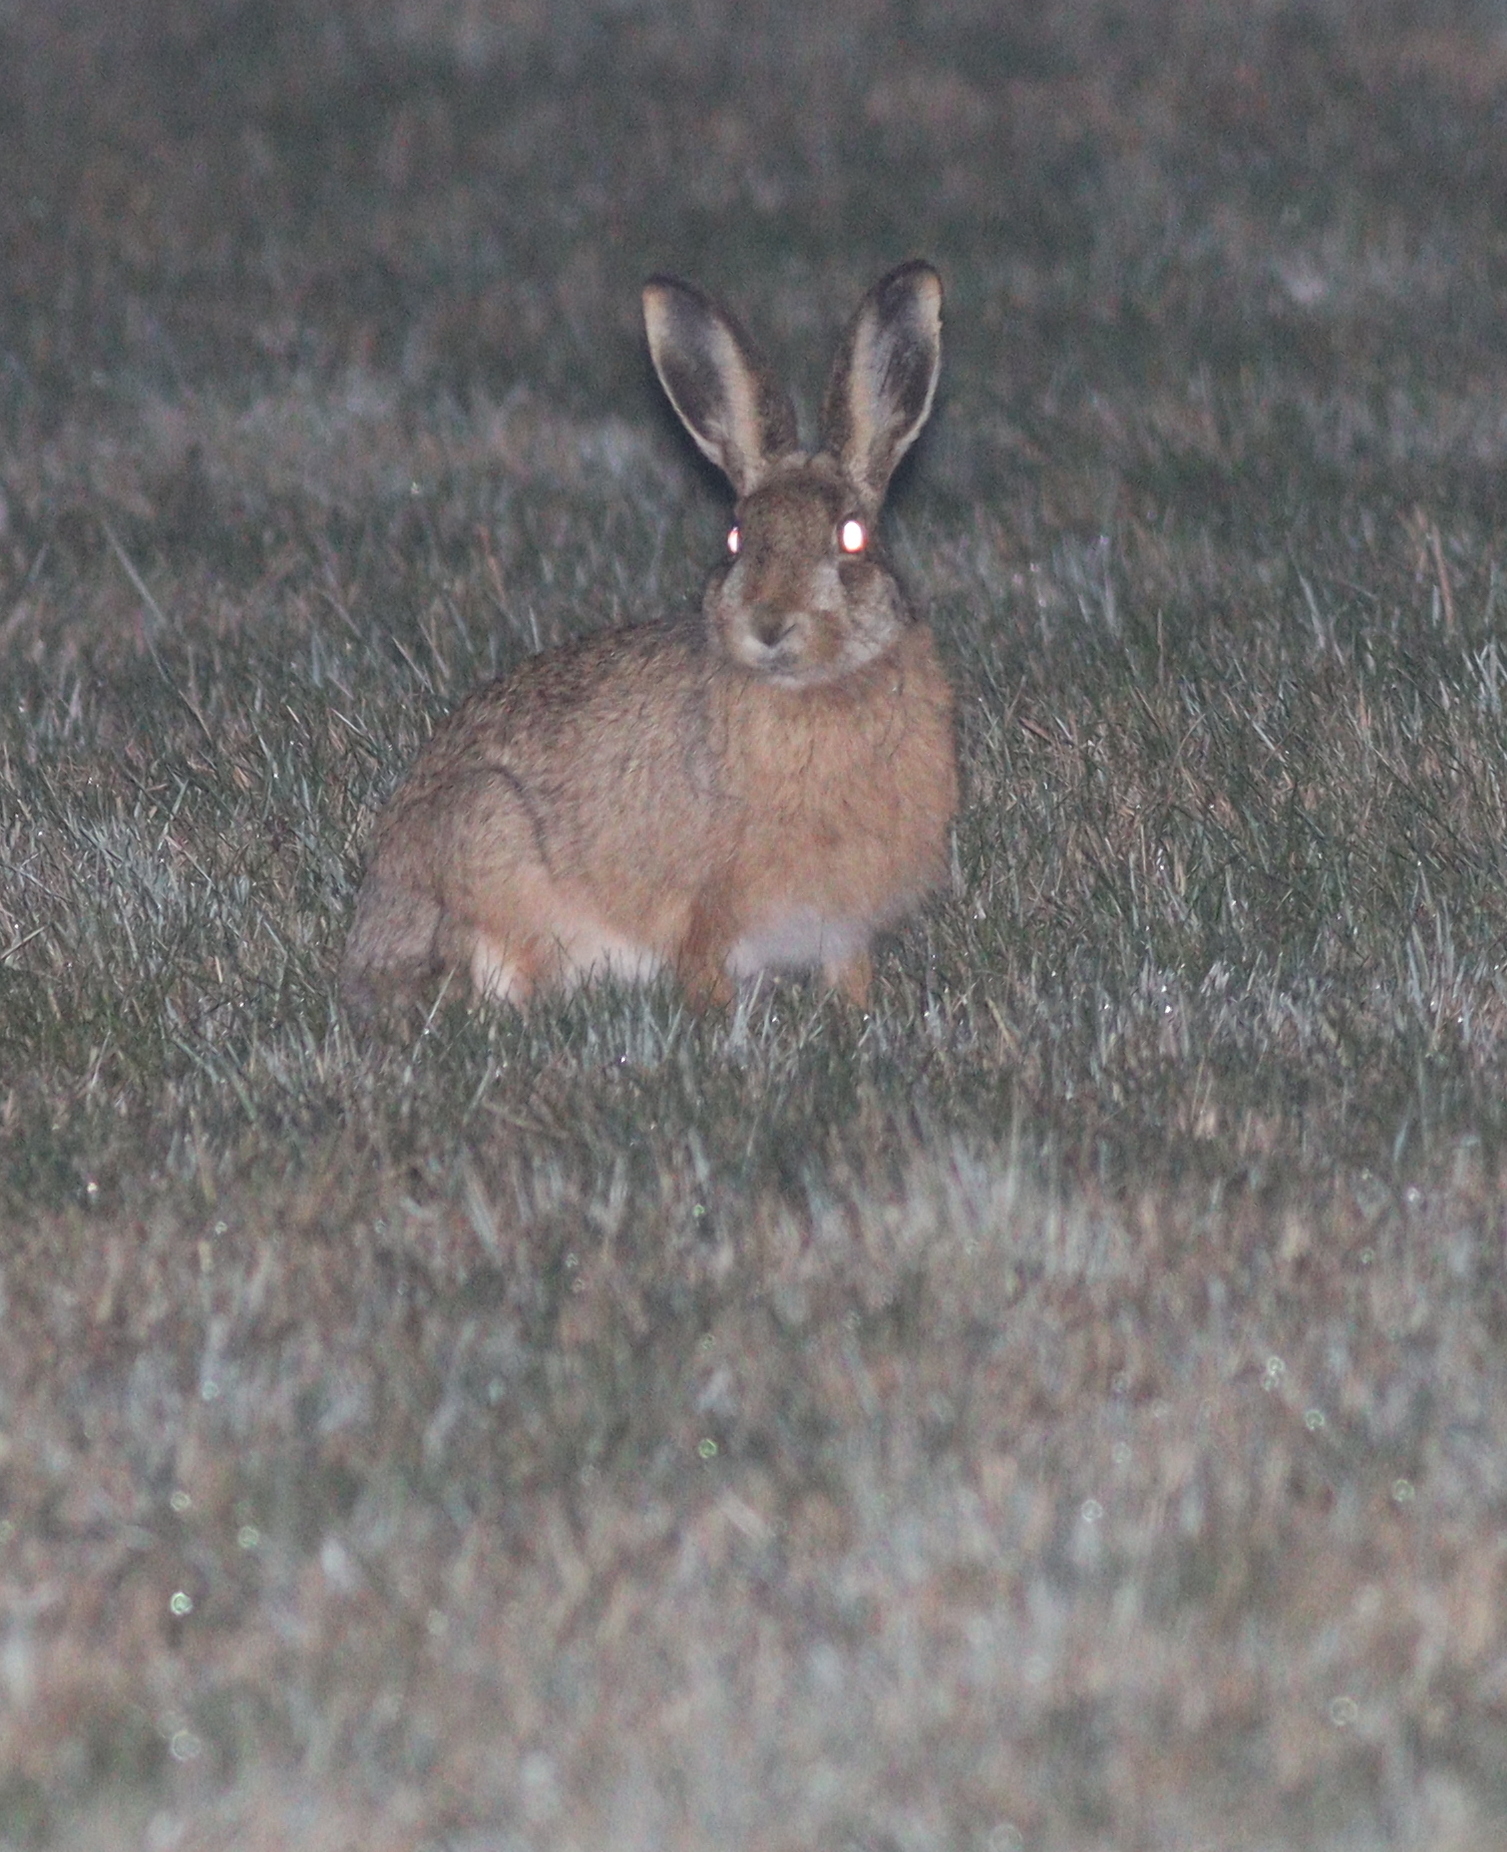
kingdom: Animalia
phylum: Chordata
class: Mammalia
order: Lagomorpha
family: Leporidae
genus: Lepus
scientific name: Lepus europaeus
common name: European hare
